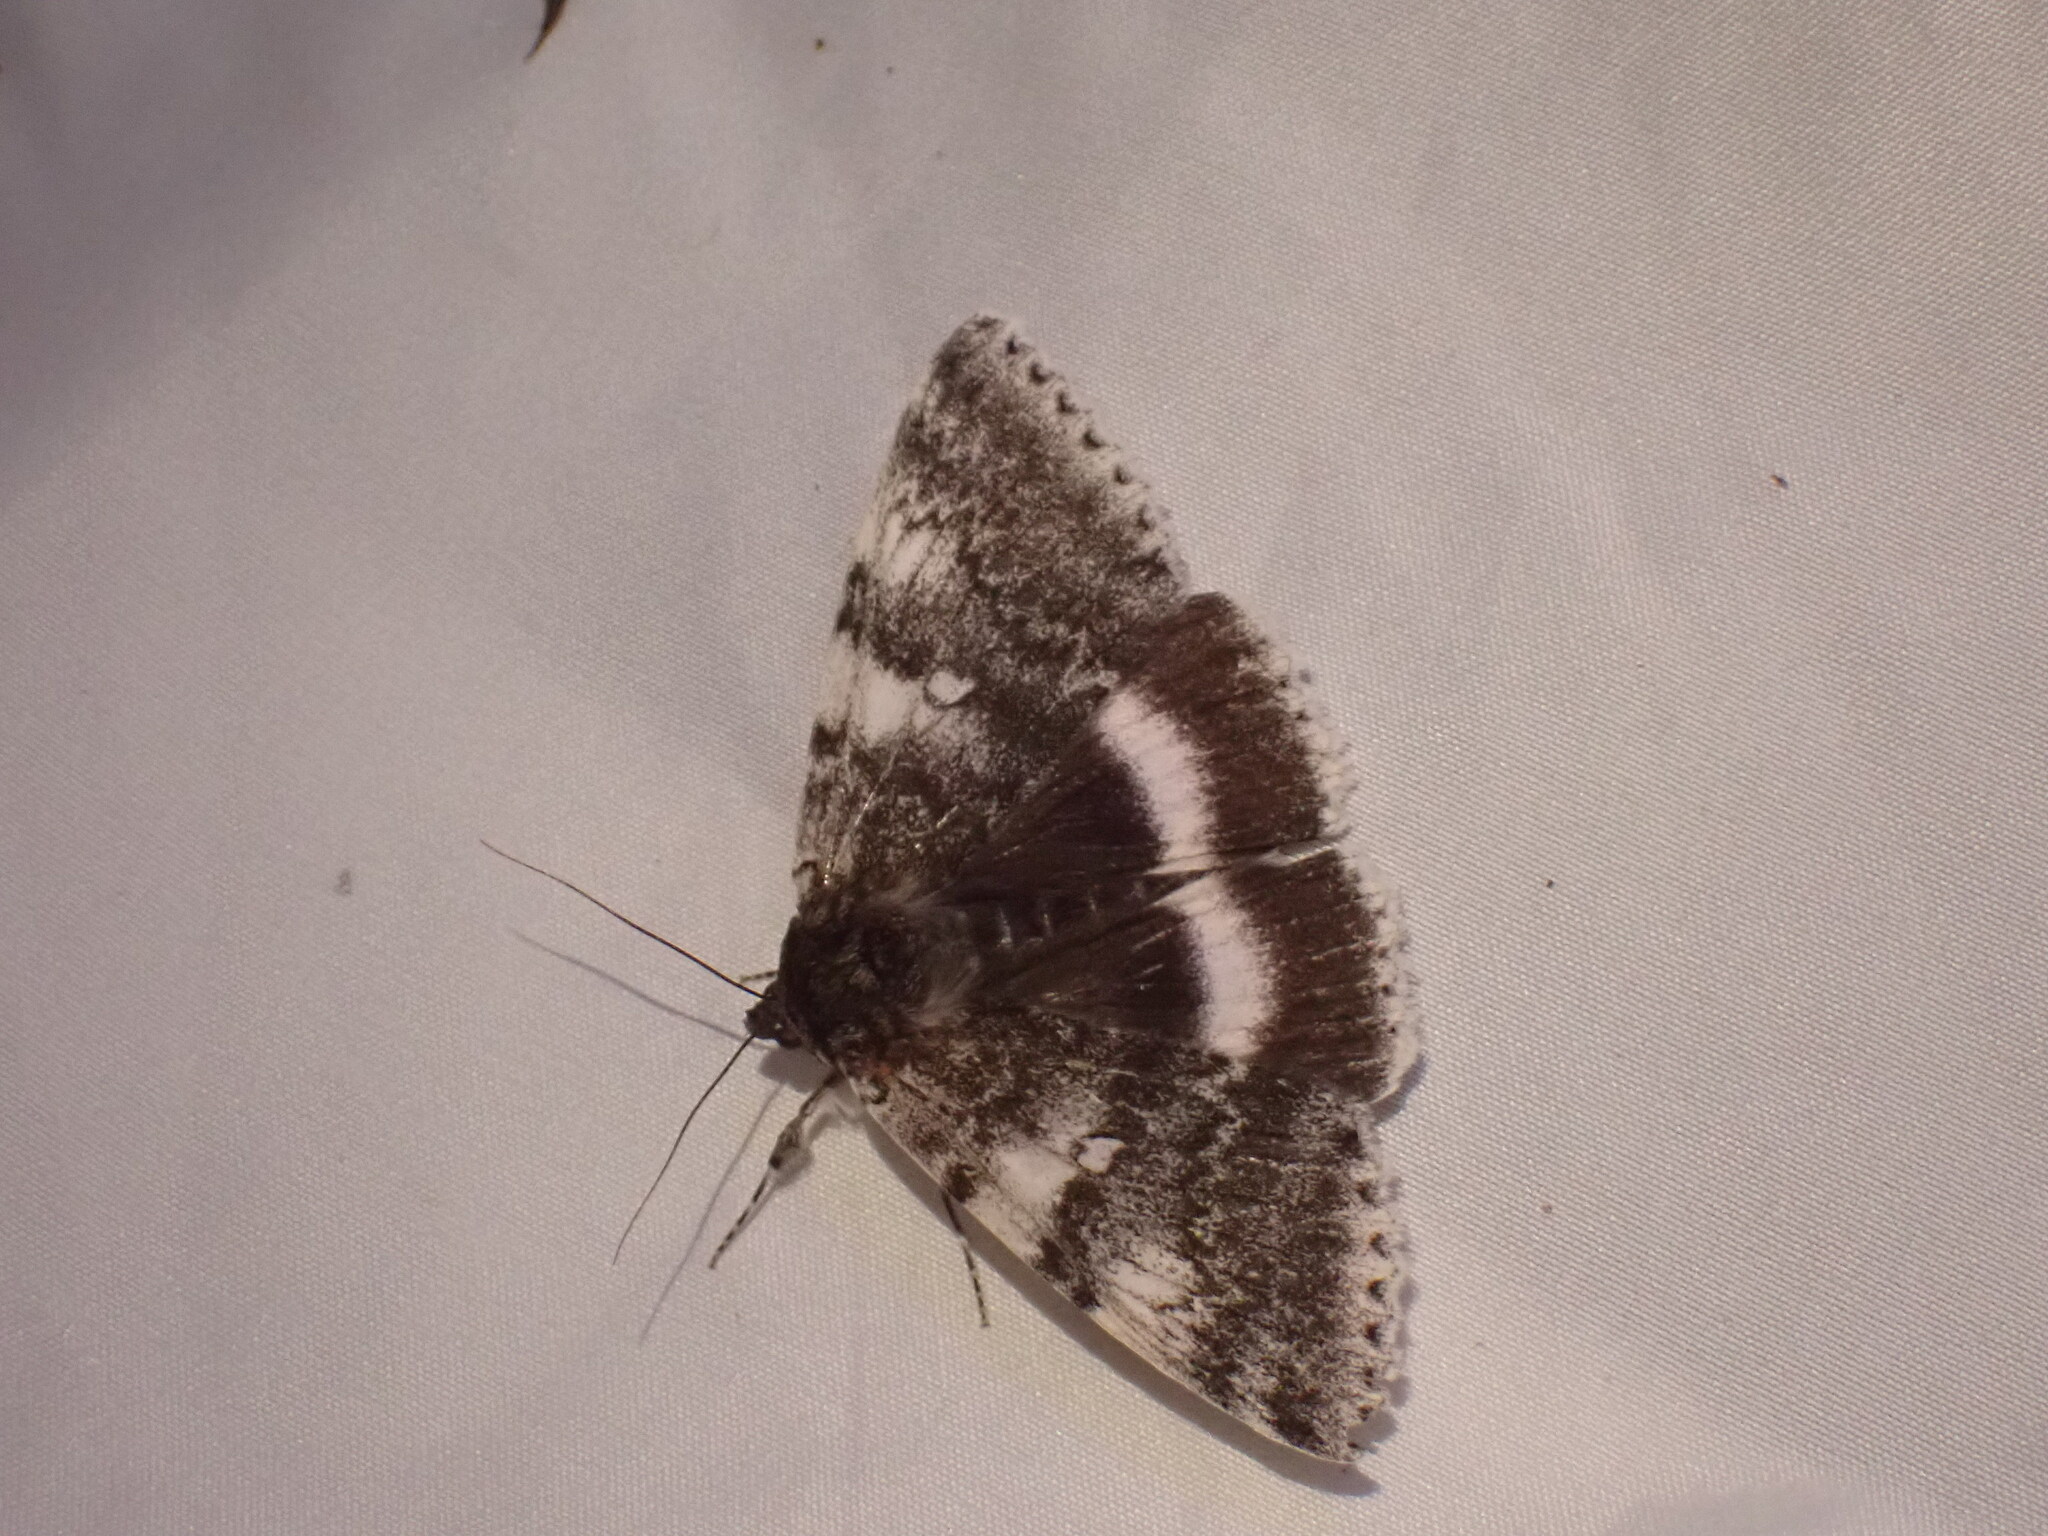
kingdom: Animalia
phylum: Arthropoda
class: Insecta
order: Lepidoptera
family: Erebidae
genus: Catocala
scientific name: Catocala relicta
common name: White underwing
